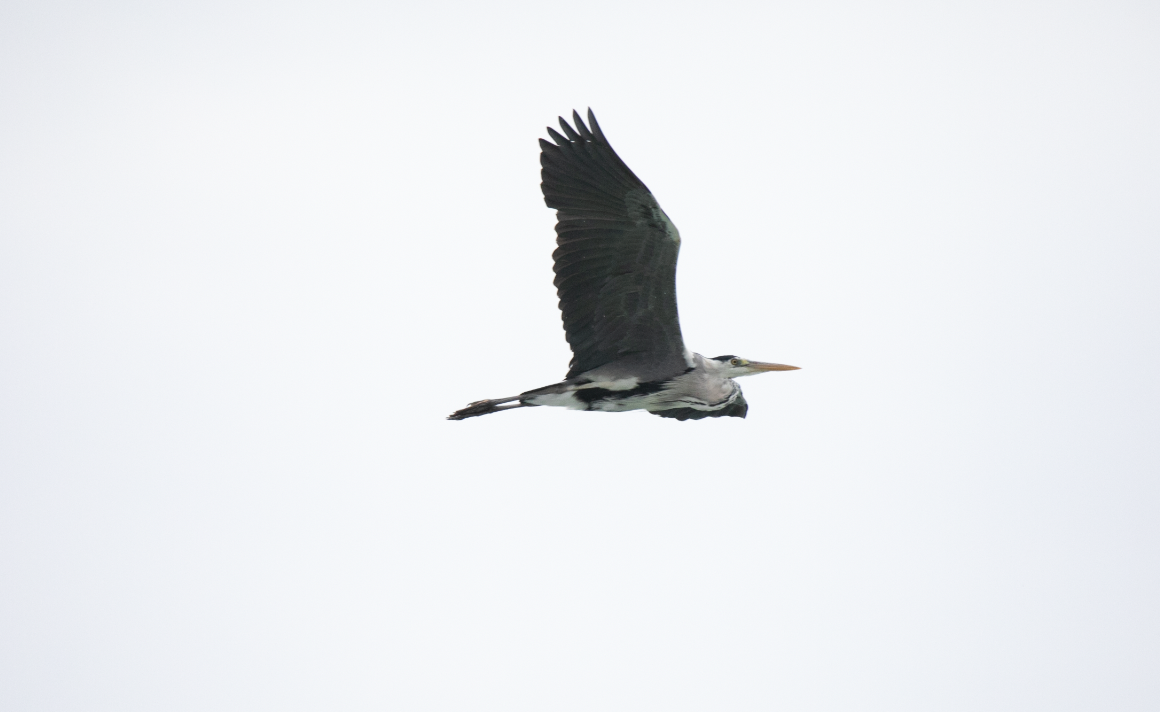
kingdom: Animalia
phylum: Chordata
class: Aves
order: Pelecaniformes
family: Ardeidae
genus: Ardea
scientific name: Ardea cinerea
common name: Grey heron
